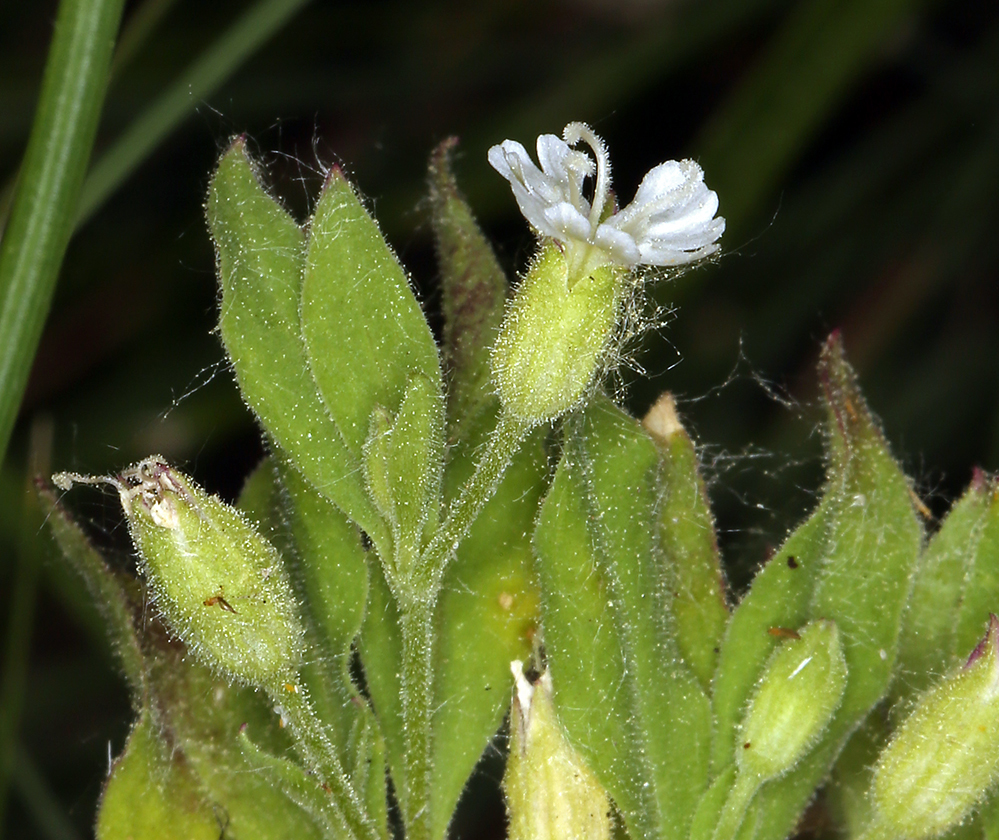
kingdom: Plantae
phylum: Tracheophyta
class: Magnoliopsida
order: Caryophyllales
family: Caryophyllaceae
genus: Silene
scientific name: Silene menziesii
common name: Menzies's catchfly
